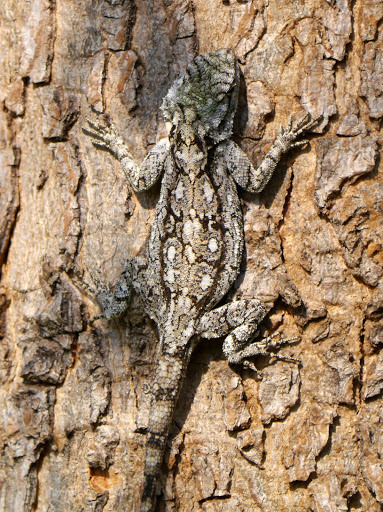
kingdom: Animalia
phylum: Chordata
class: Squamata
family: Agamidae
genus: Acanthocercus
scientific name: Acanthocercus atricollis
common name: Southern tree agama
